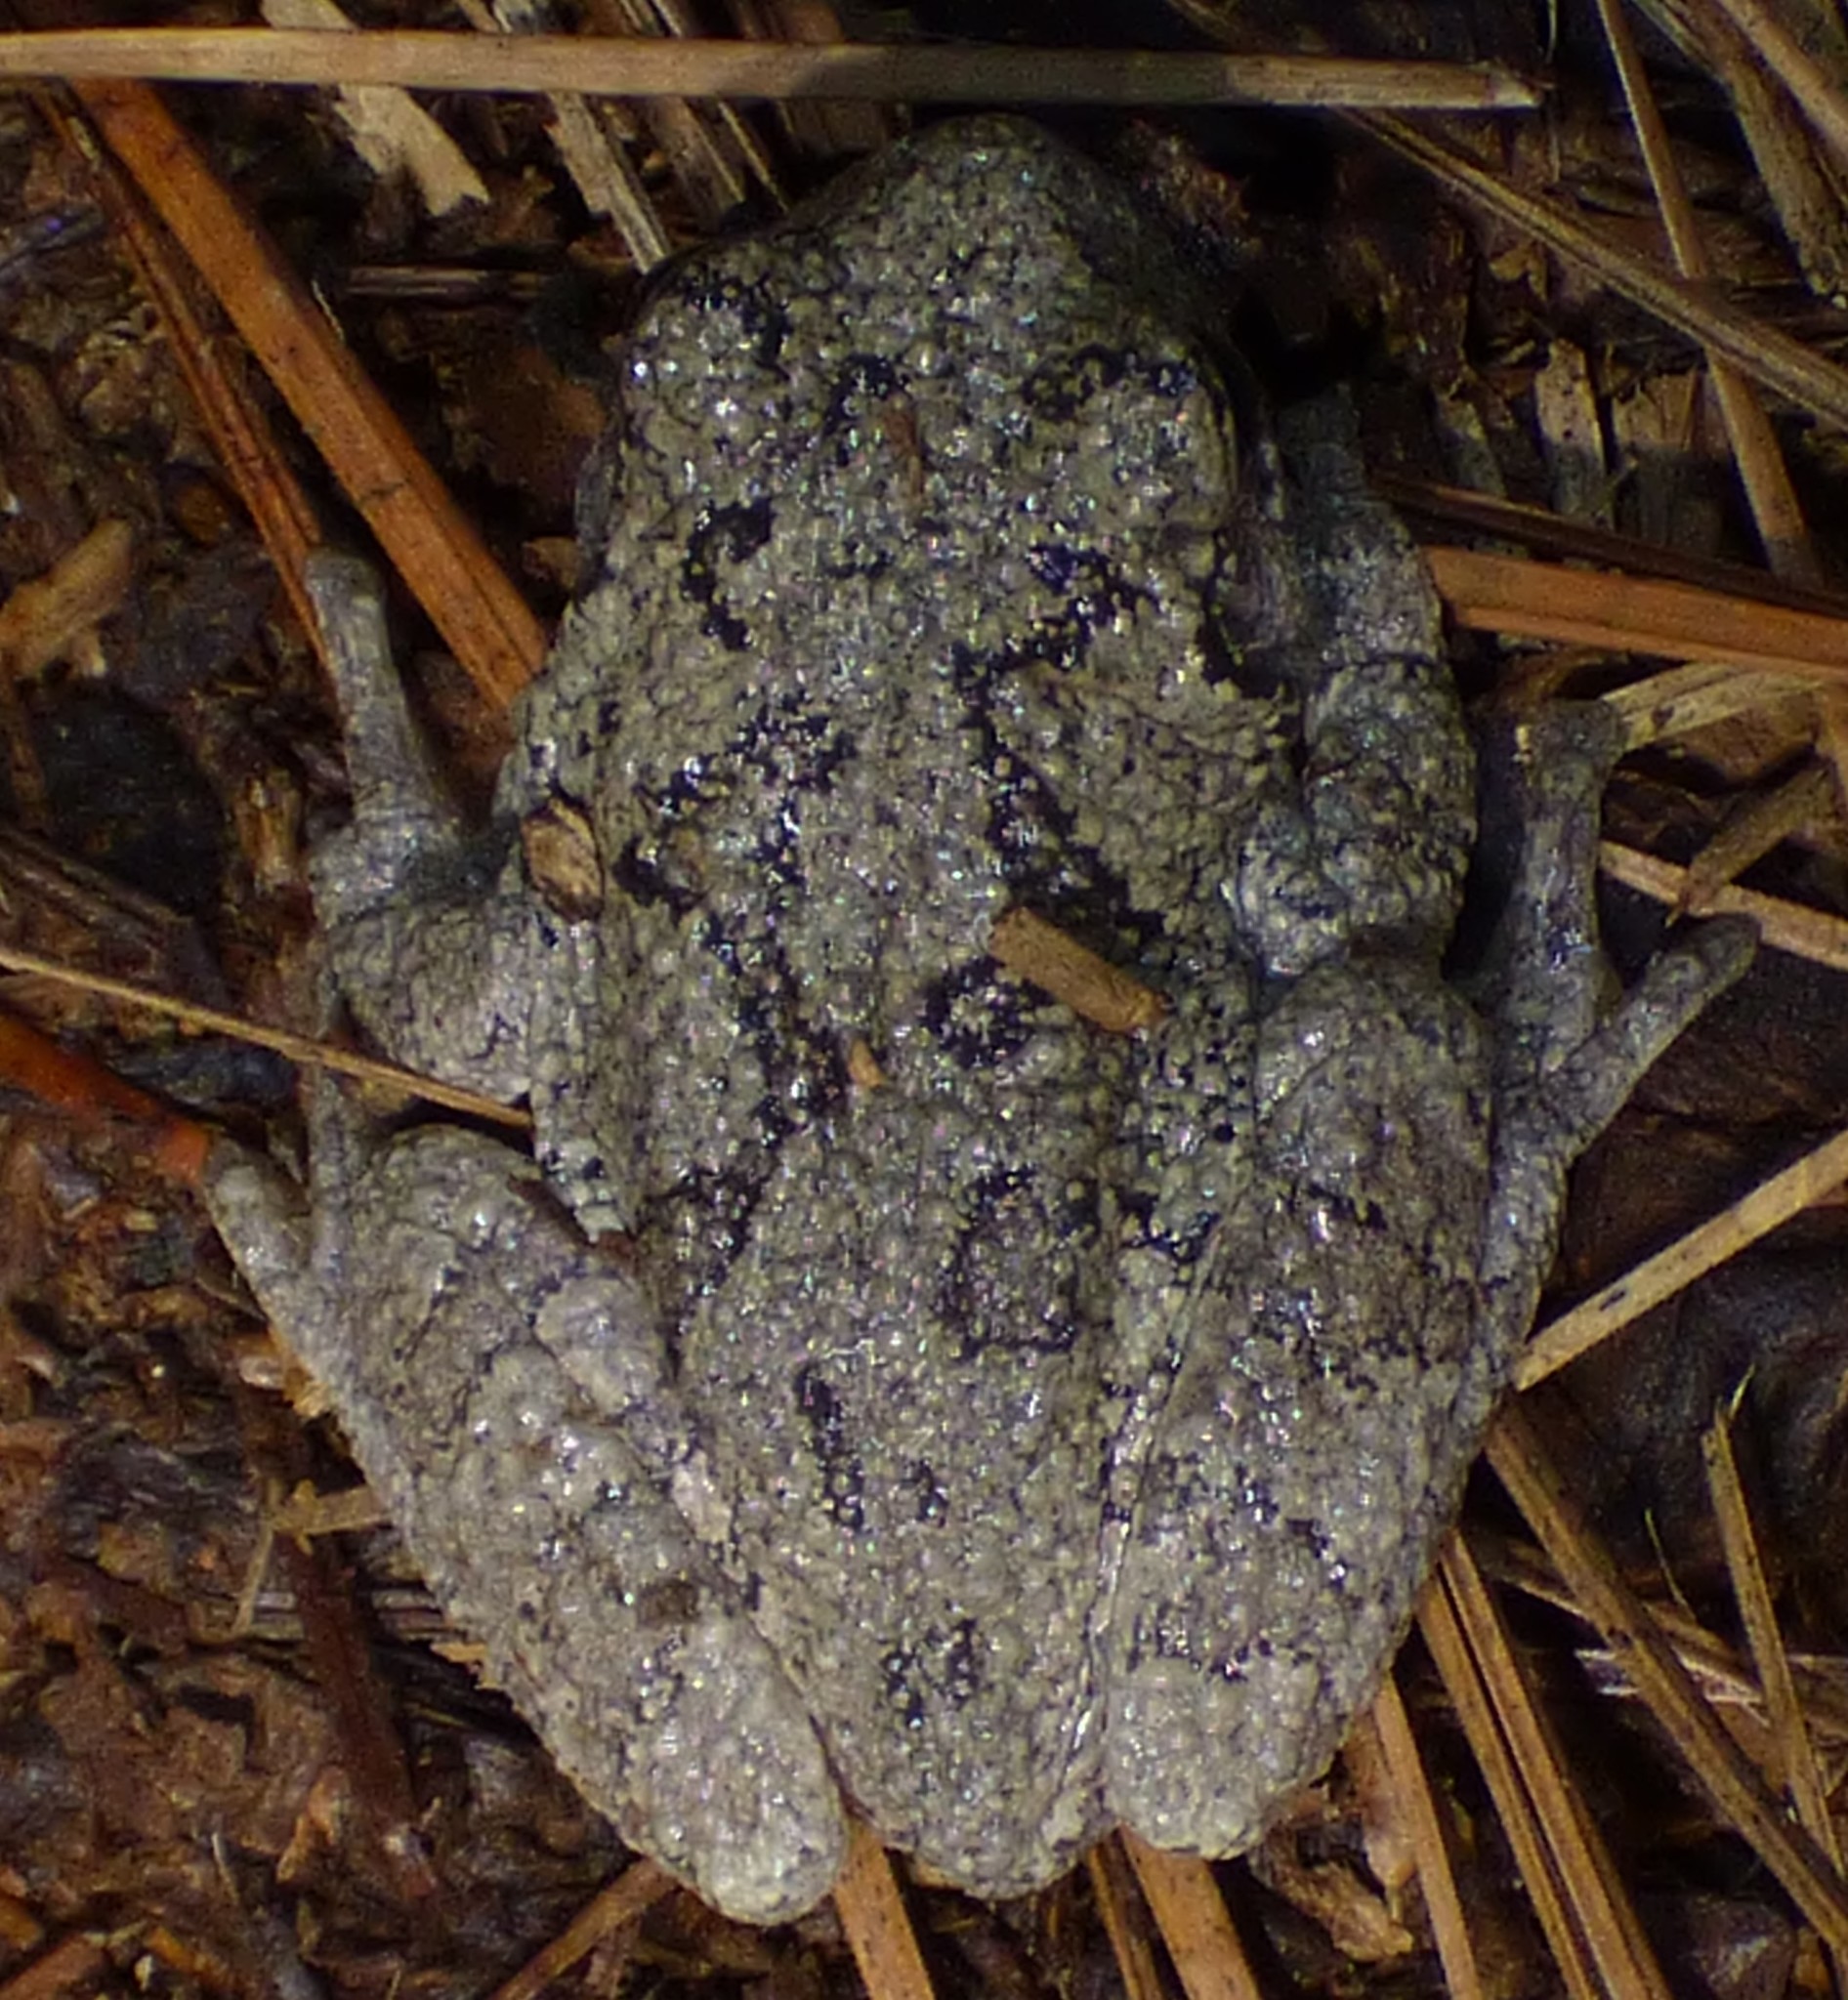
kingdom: Animalia
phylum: Chordata
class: Amphibia
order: Anura
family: Hylidae
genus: Dryophytes
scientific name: Dryophytes chrysoscelis
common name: Cope's gray treefrog
